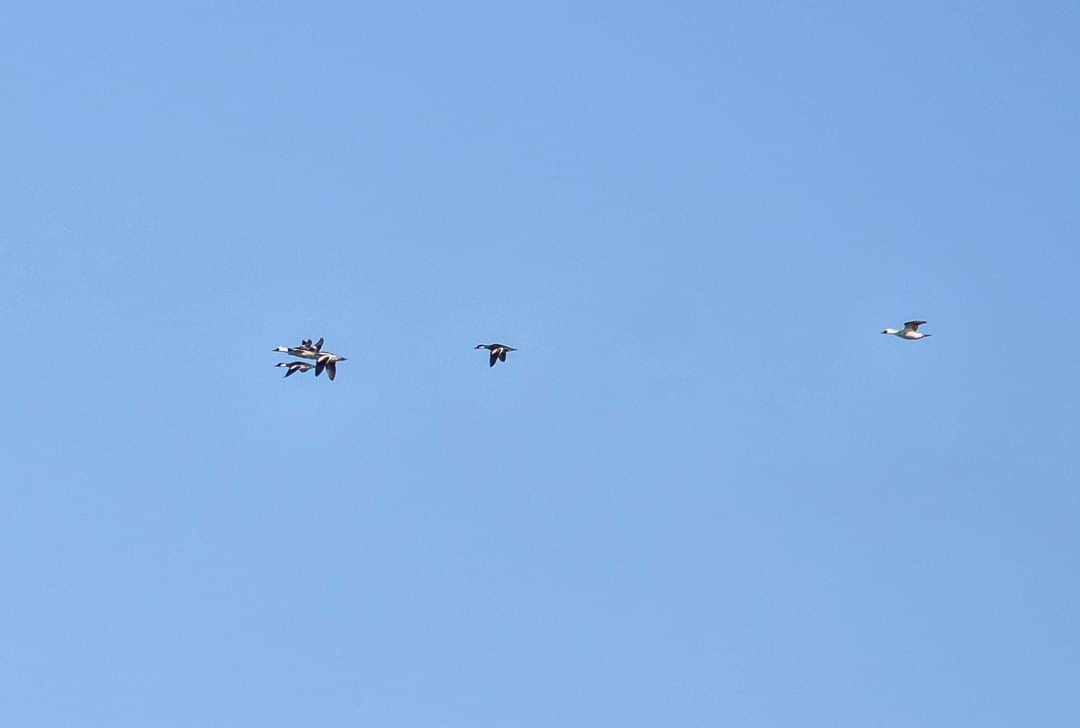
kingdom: Animalia
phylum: Chordata
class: Aves
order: Anseriformes
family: Anatidae
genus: Mergellus
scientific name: Mergellus albellus
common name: Smew
